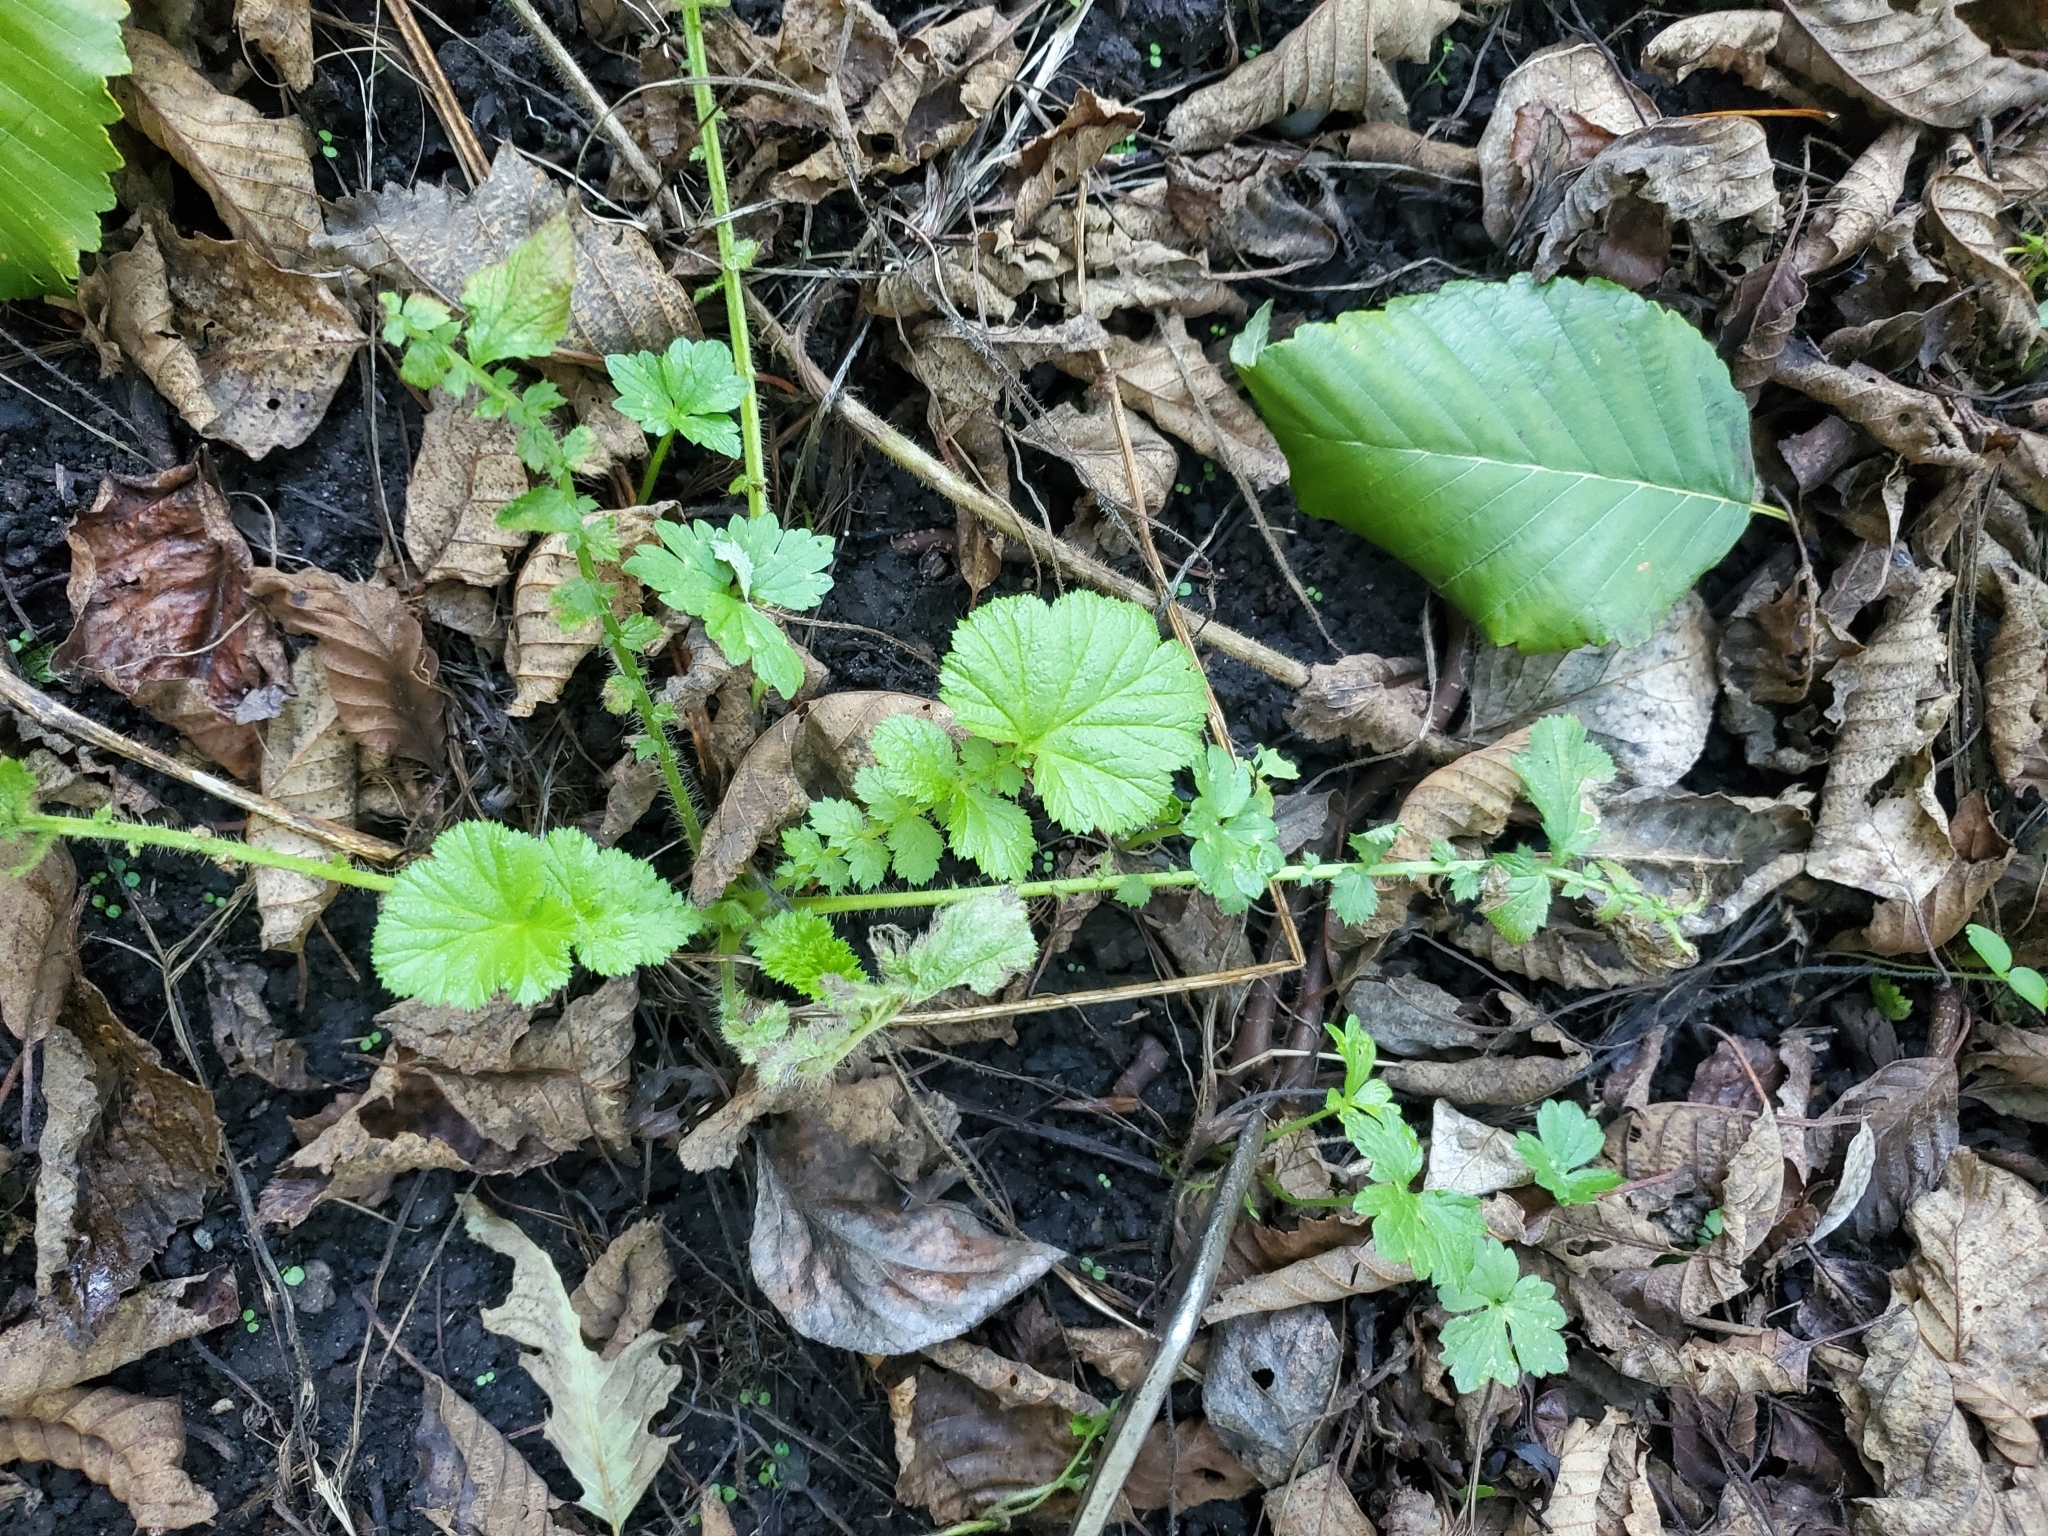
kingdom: Plantae
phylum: Tracheophyta
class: Magnoliopsida
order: Rosales
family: Rosaceae
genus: Geum
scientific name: Geum macrophyllum
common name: Large-leaved avens
